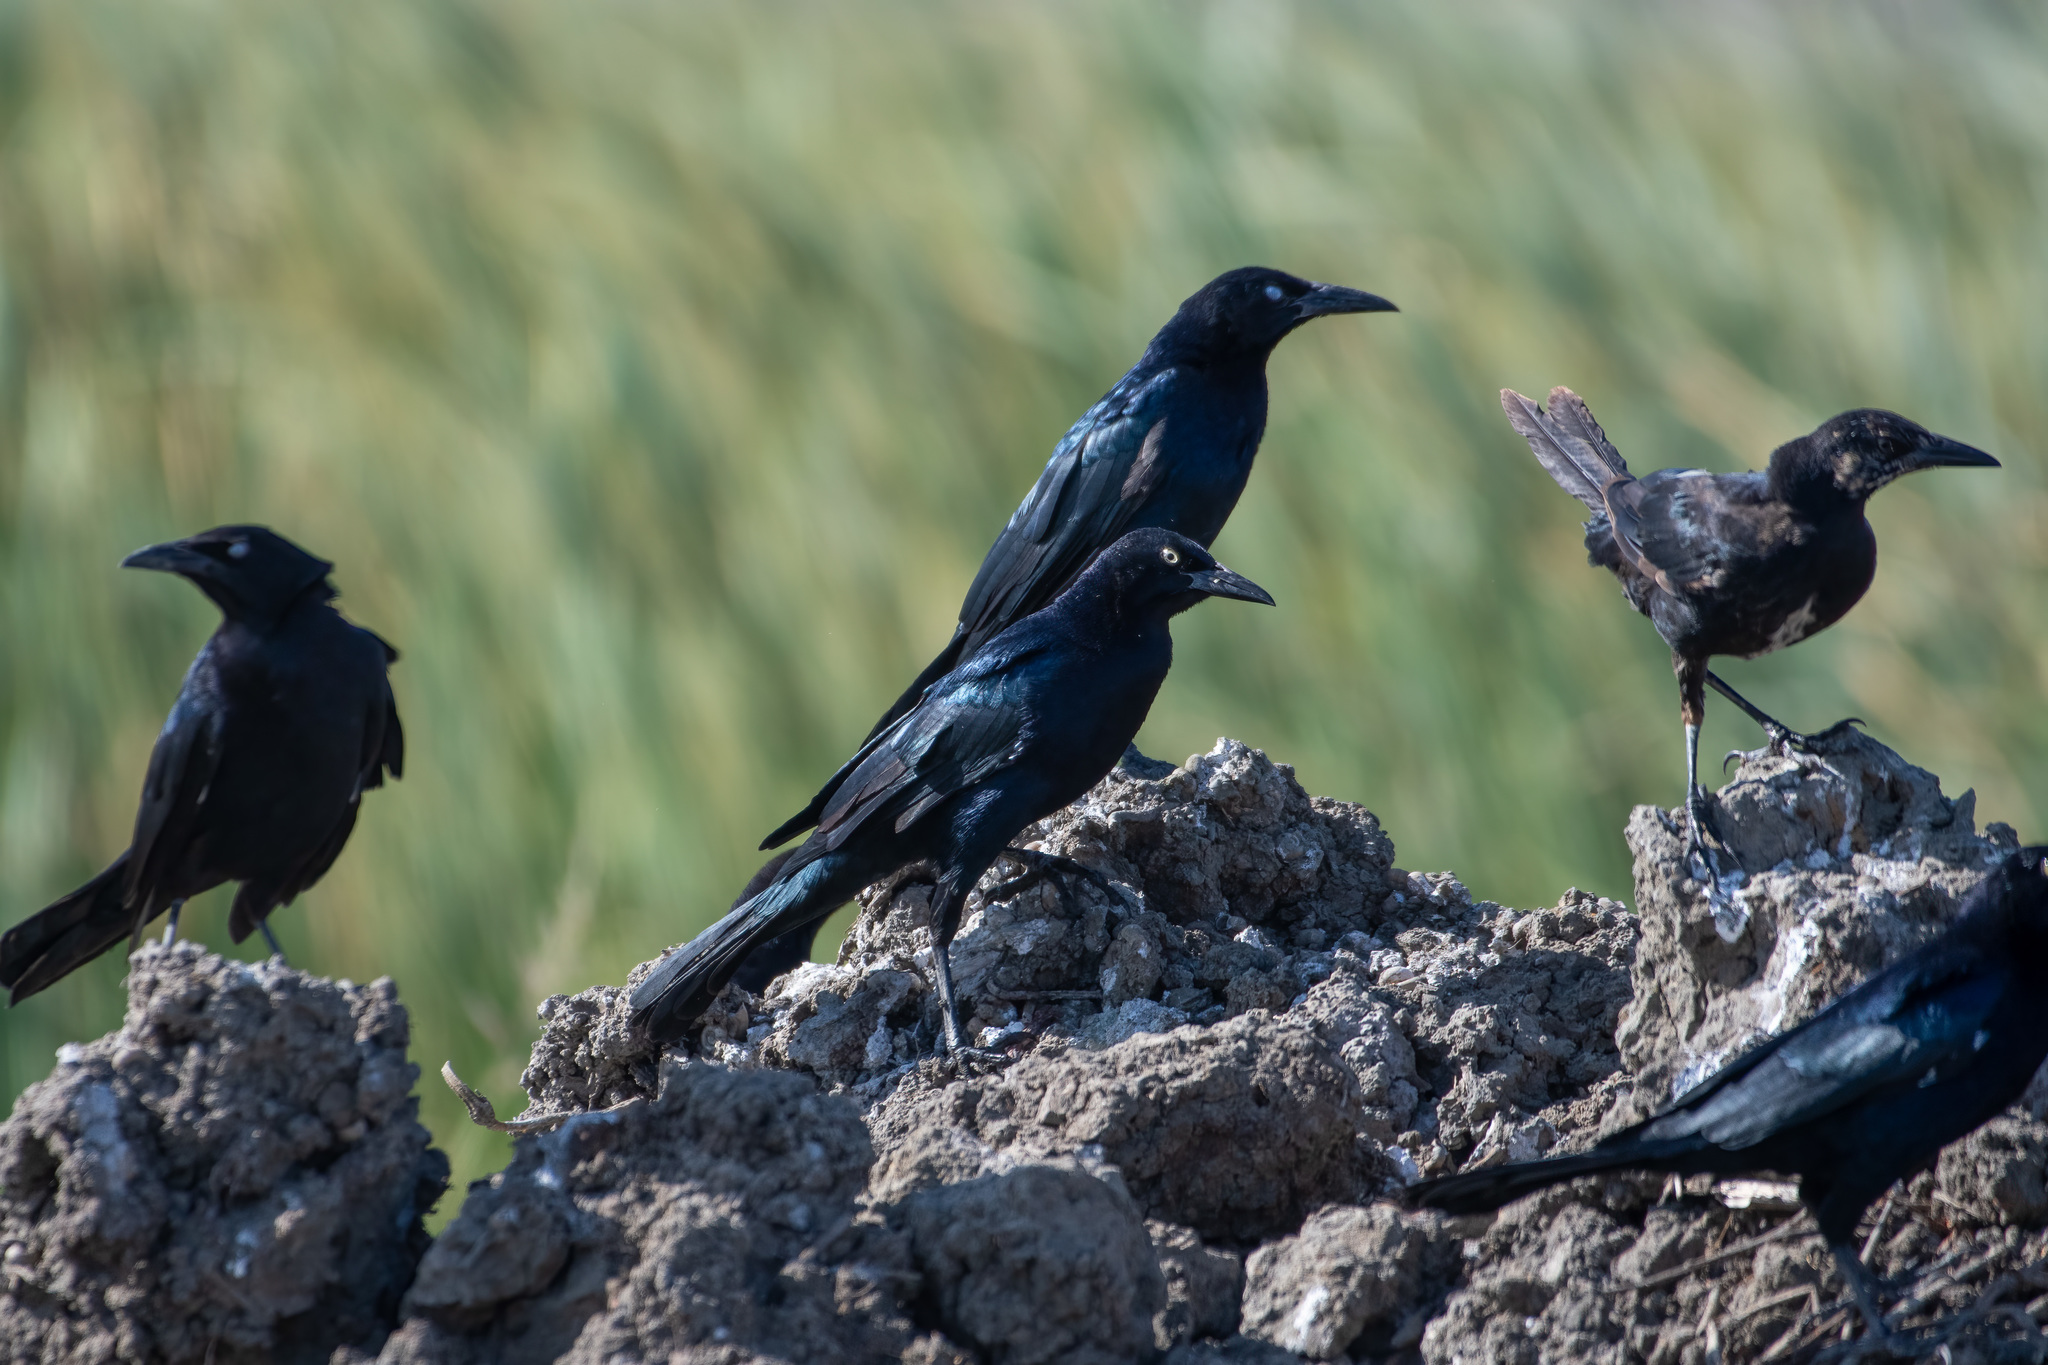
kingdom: Animalia
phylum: Chordata
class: Aves
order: Passeriformes
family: Icteridae
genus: Quiscalus
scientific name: Quiscalus mexicanus
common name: Great-tailed grackle
